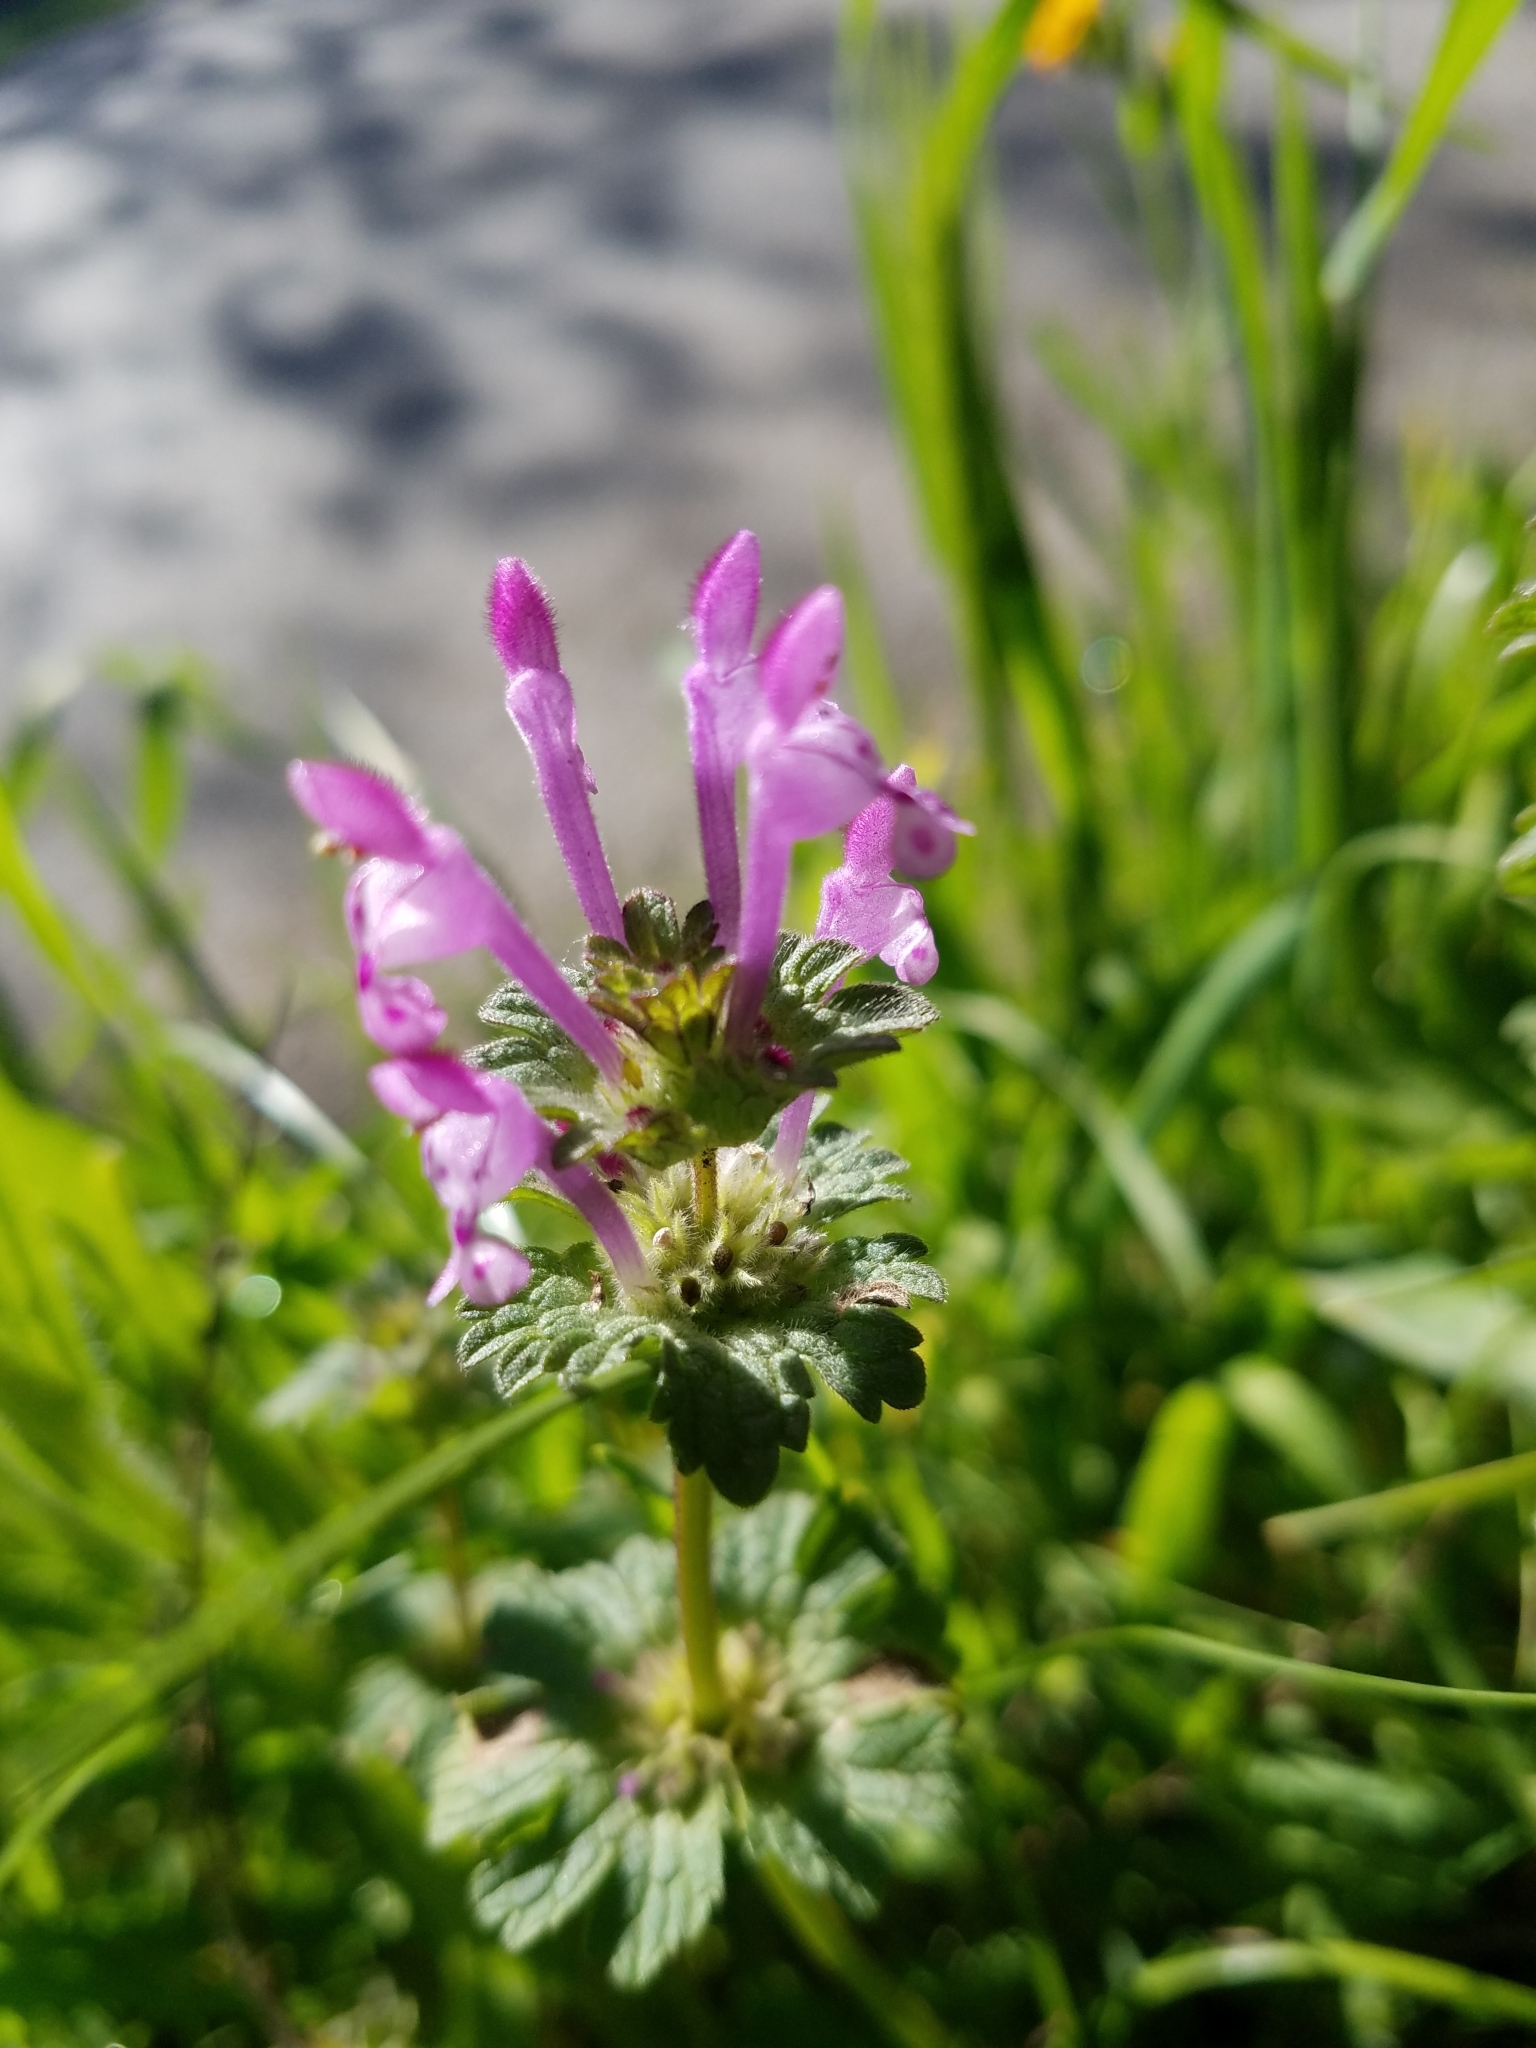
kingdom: Plantae
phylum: Tracheophyta
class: Magnoliopsida
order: Lamiales
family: Lamiaceae
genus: Lamium
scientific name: Lamium amplexicaule
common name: Henbit dead-nettle
